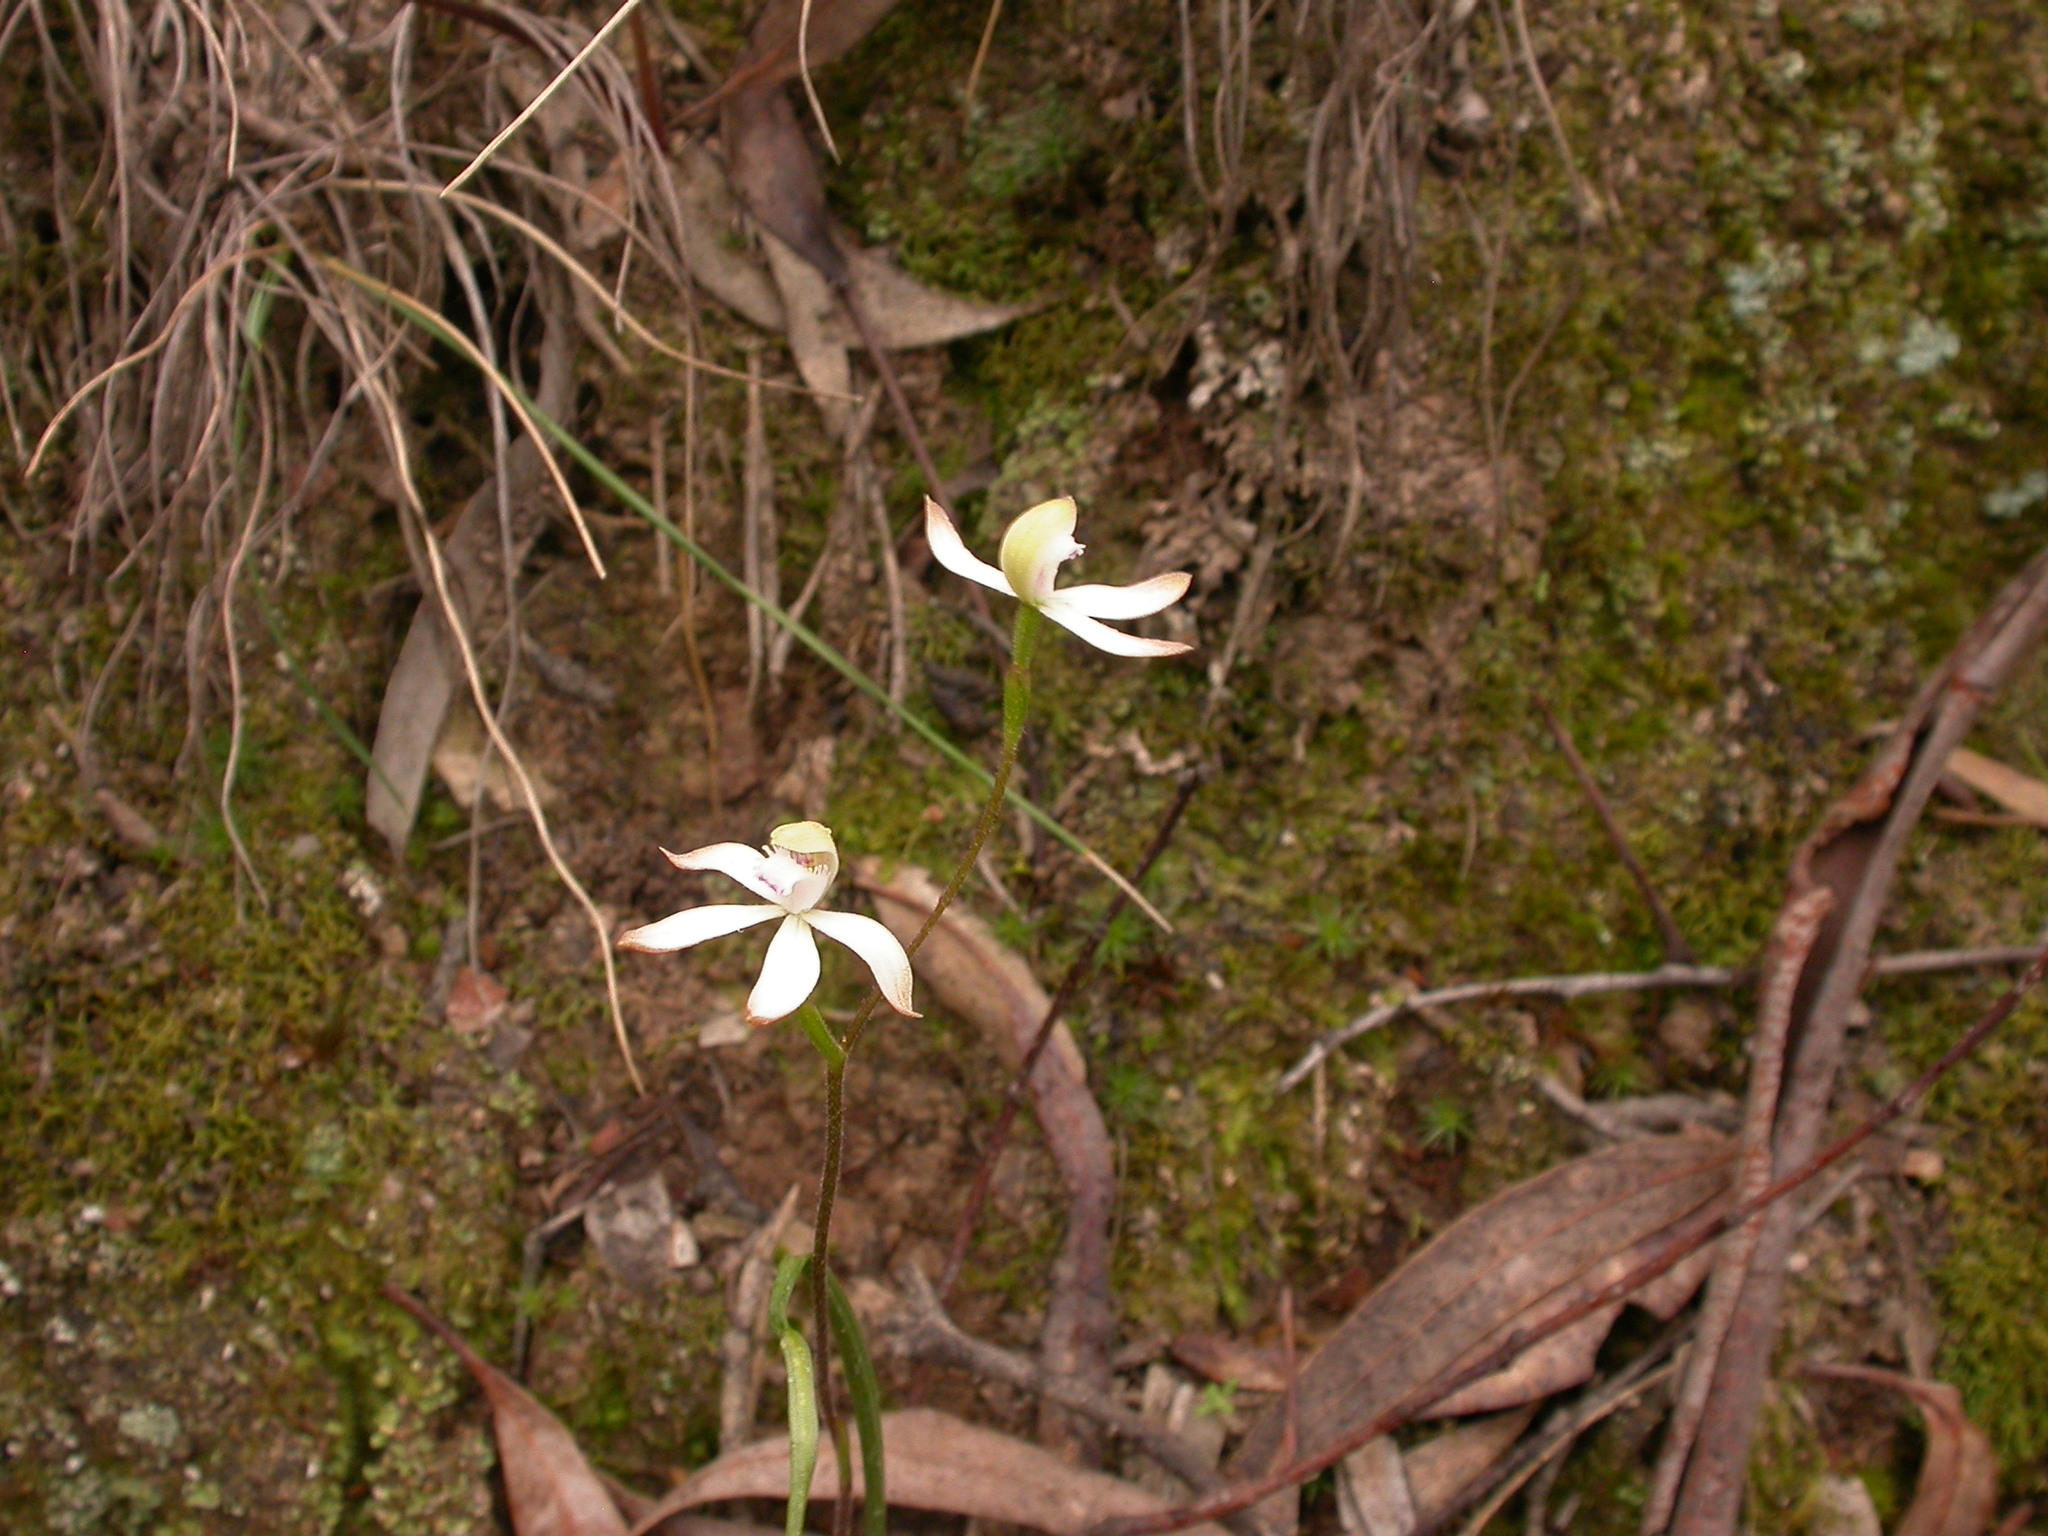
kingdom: Plantae
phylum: Tracheophyta
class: Liliopsida
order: Asparagales
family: Orchidaceae
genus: Caladenia
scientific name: Caladenia ustulata
